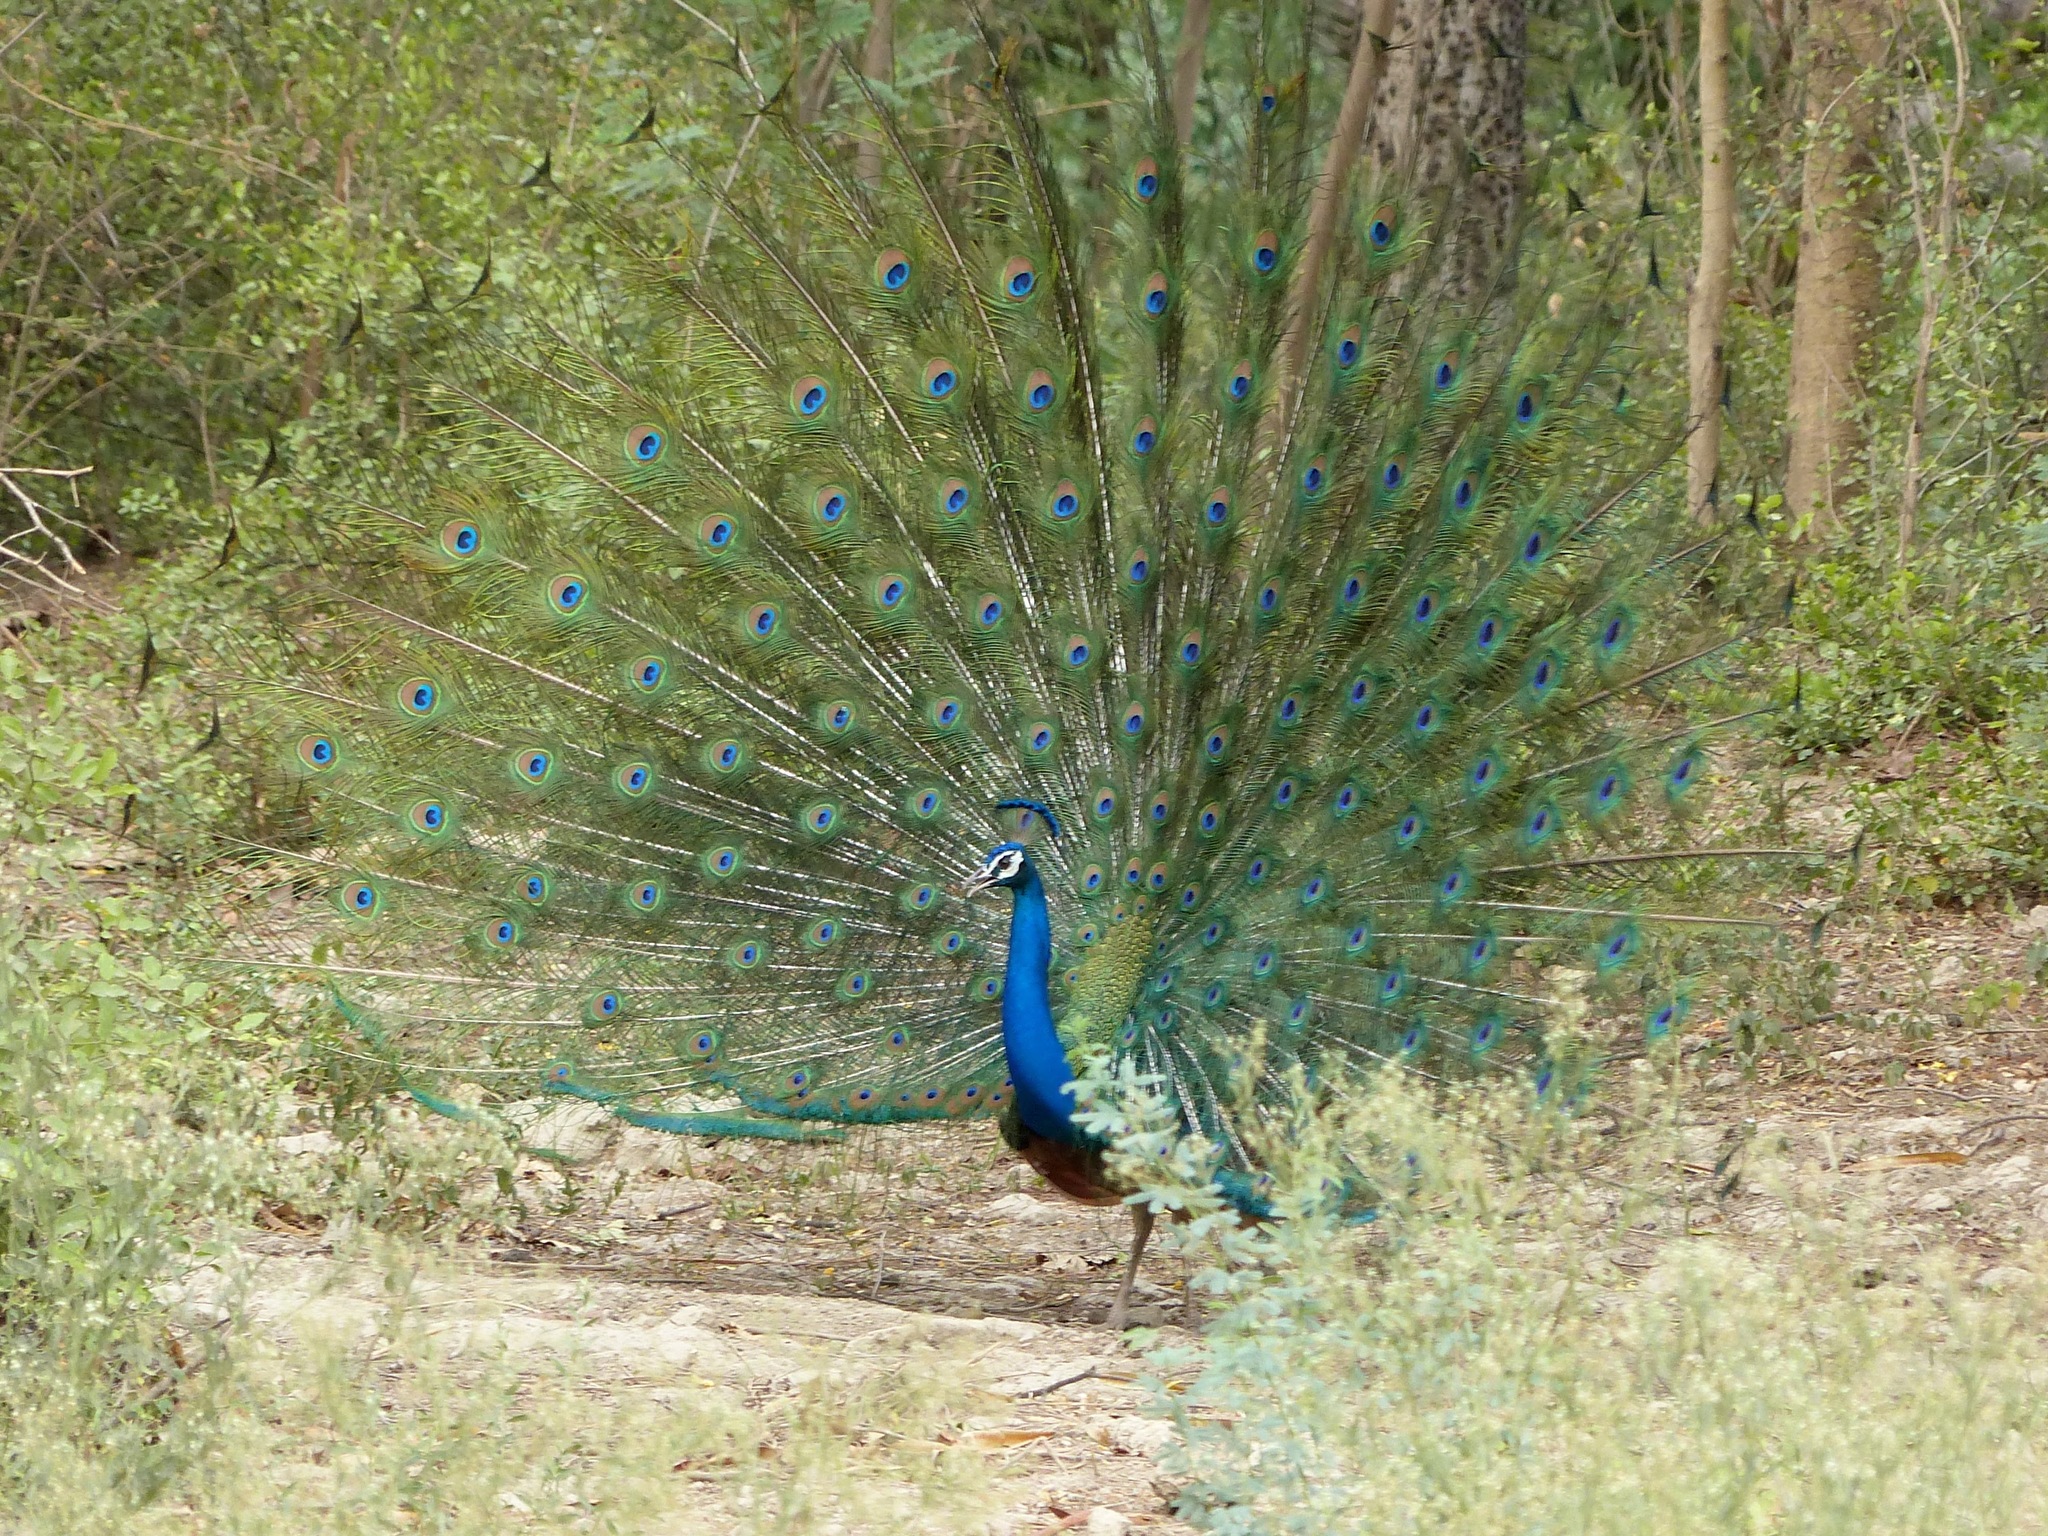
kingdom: Animalia
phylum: Chordata
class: Aves
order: Galliformes
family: Phasianidae
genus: Pavo
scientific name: Pavo cristatus
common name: Indian peafowl
